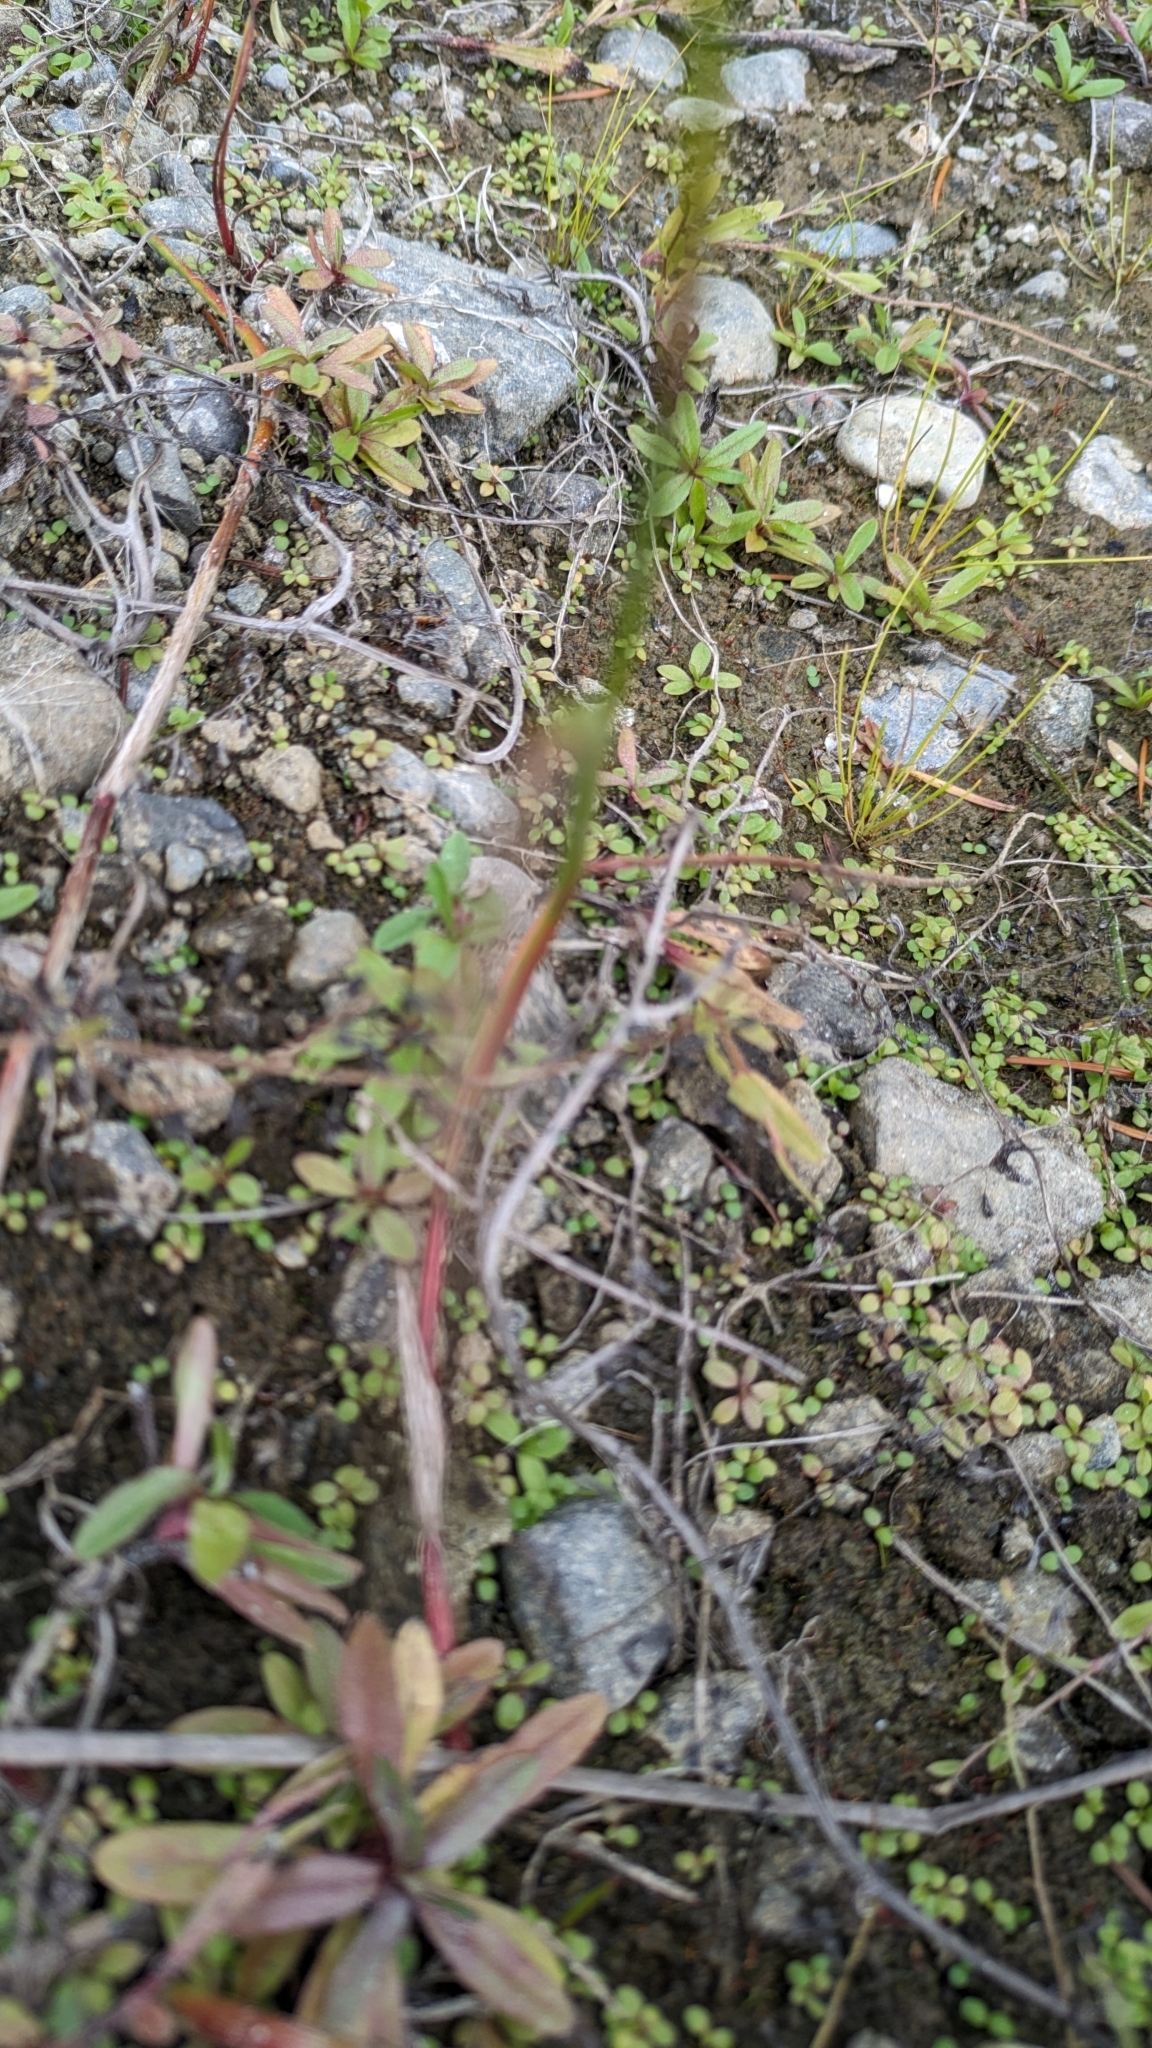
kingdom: Plantae
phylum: Tracheophyta
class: Liliopsida
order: Poales
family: Juncaceae
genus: Juncus
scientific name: Juncus articulatus
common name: Jointed rush
